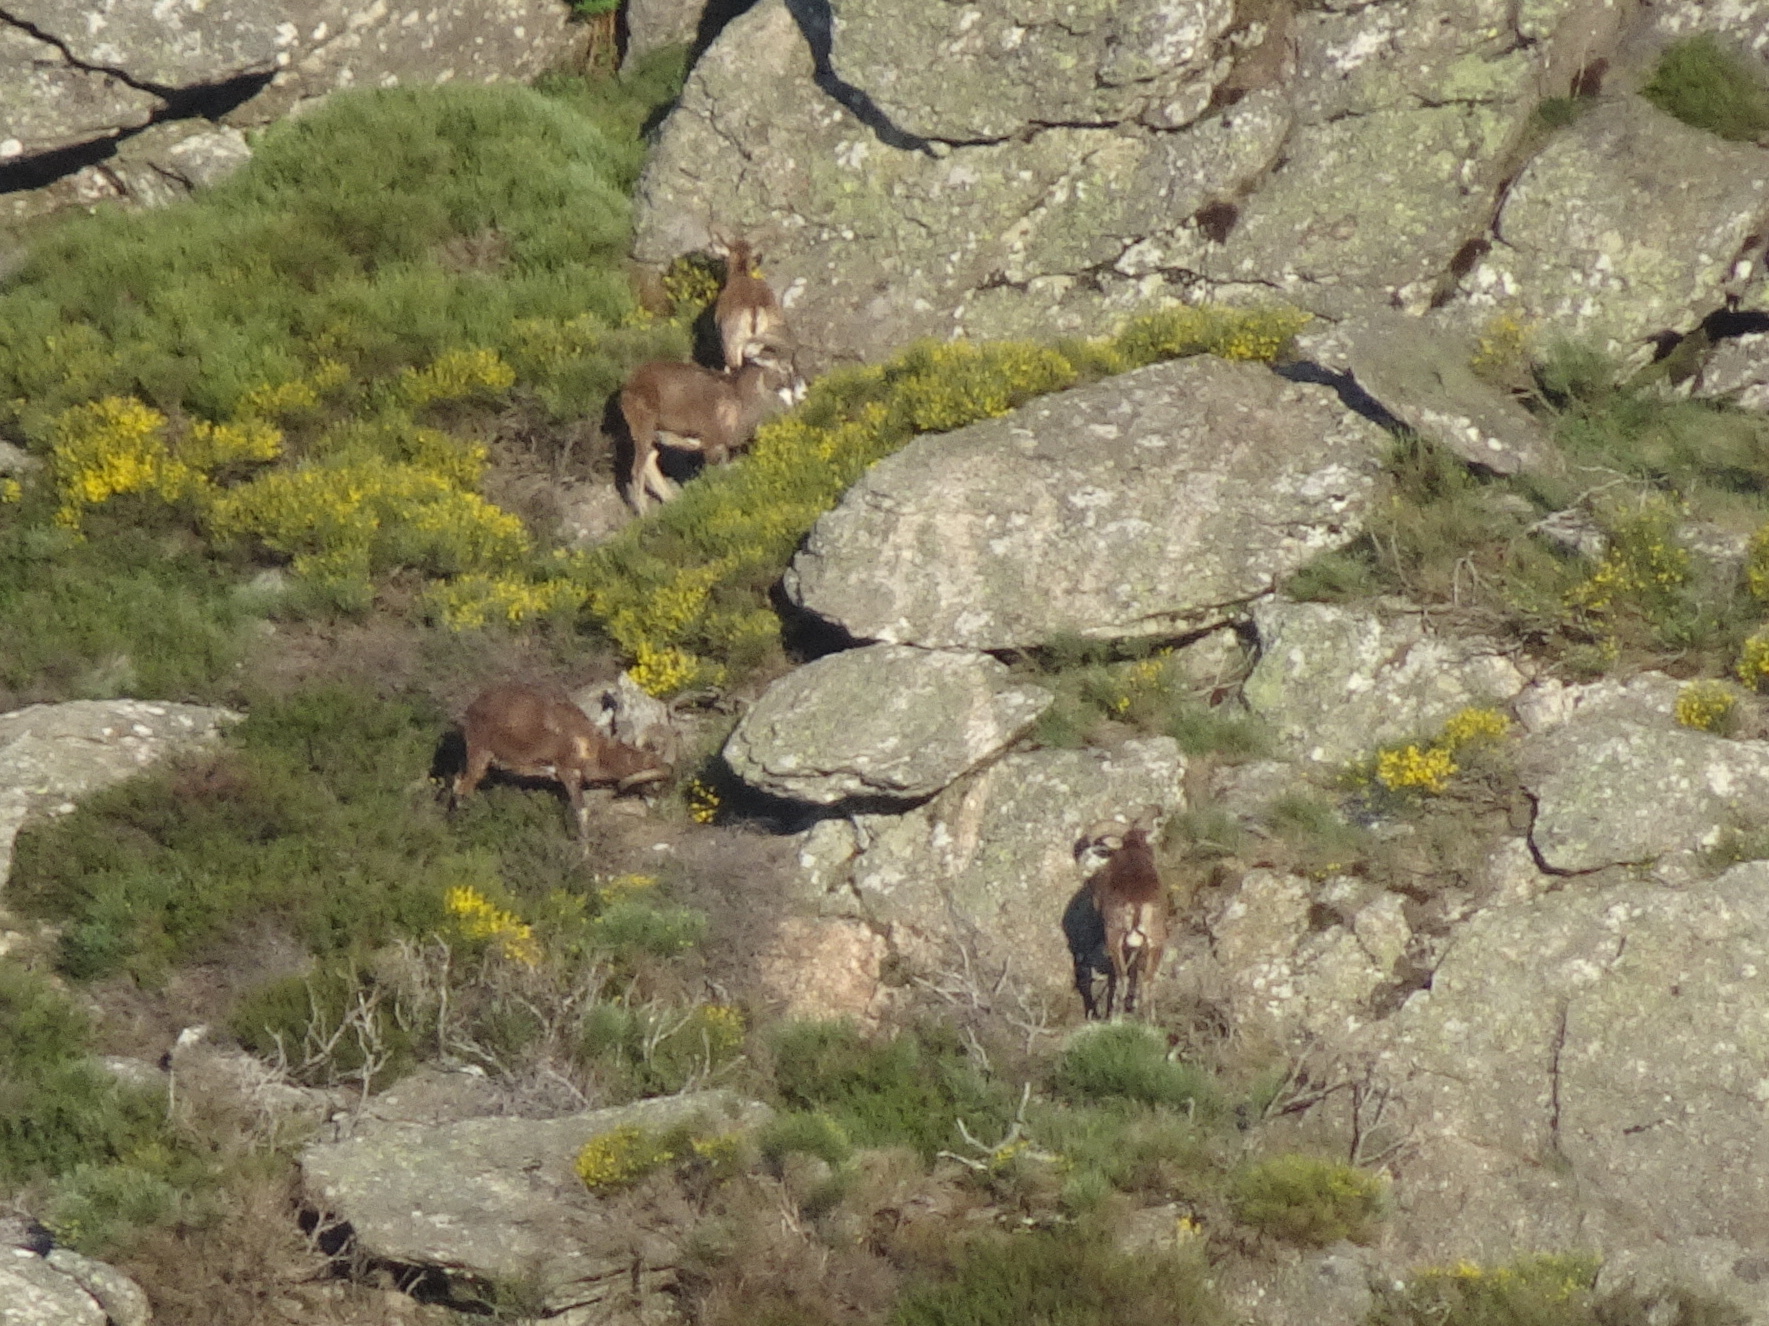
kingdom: Animalia
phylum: Chordata
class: Mammalia
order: Artiodactyla
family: Bovidae
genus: Ovis
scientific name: Ovis aries
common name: Domestic sheep
